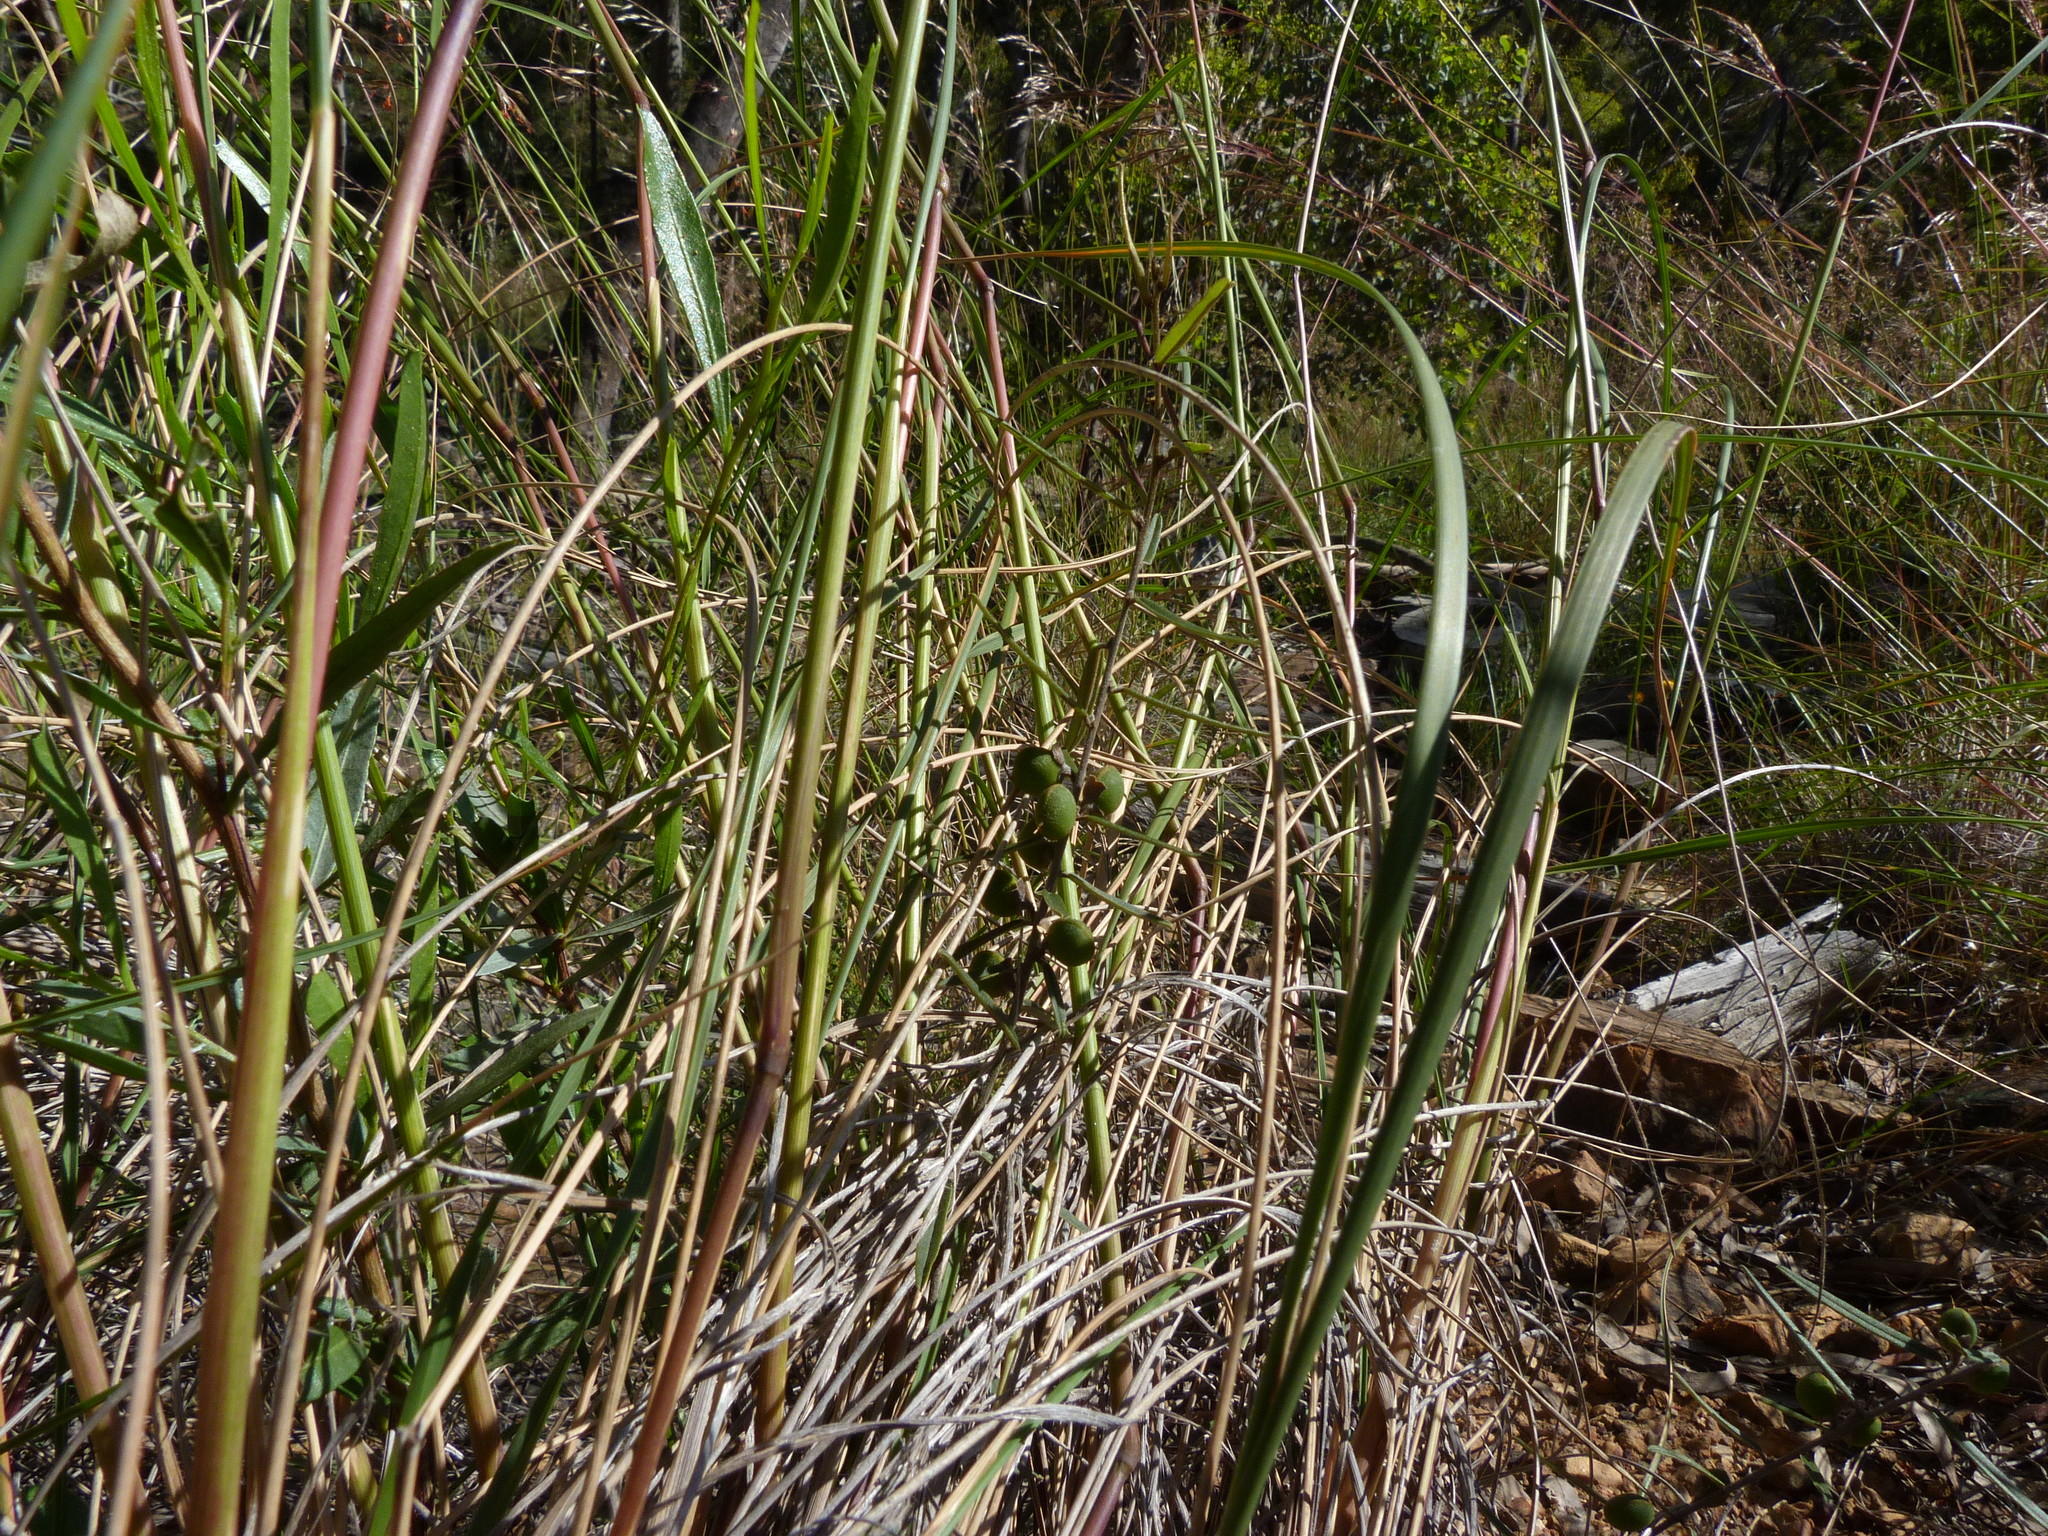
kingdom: Plantae
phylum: Tracheophyta
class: Magnoliopsida
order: Fabales
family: Fabaceae
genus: Hovea
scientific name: Hovea heterophylla
